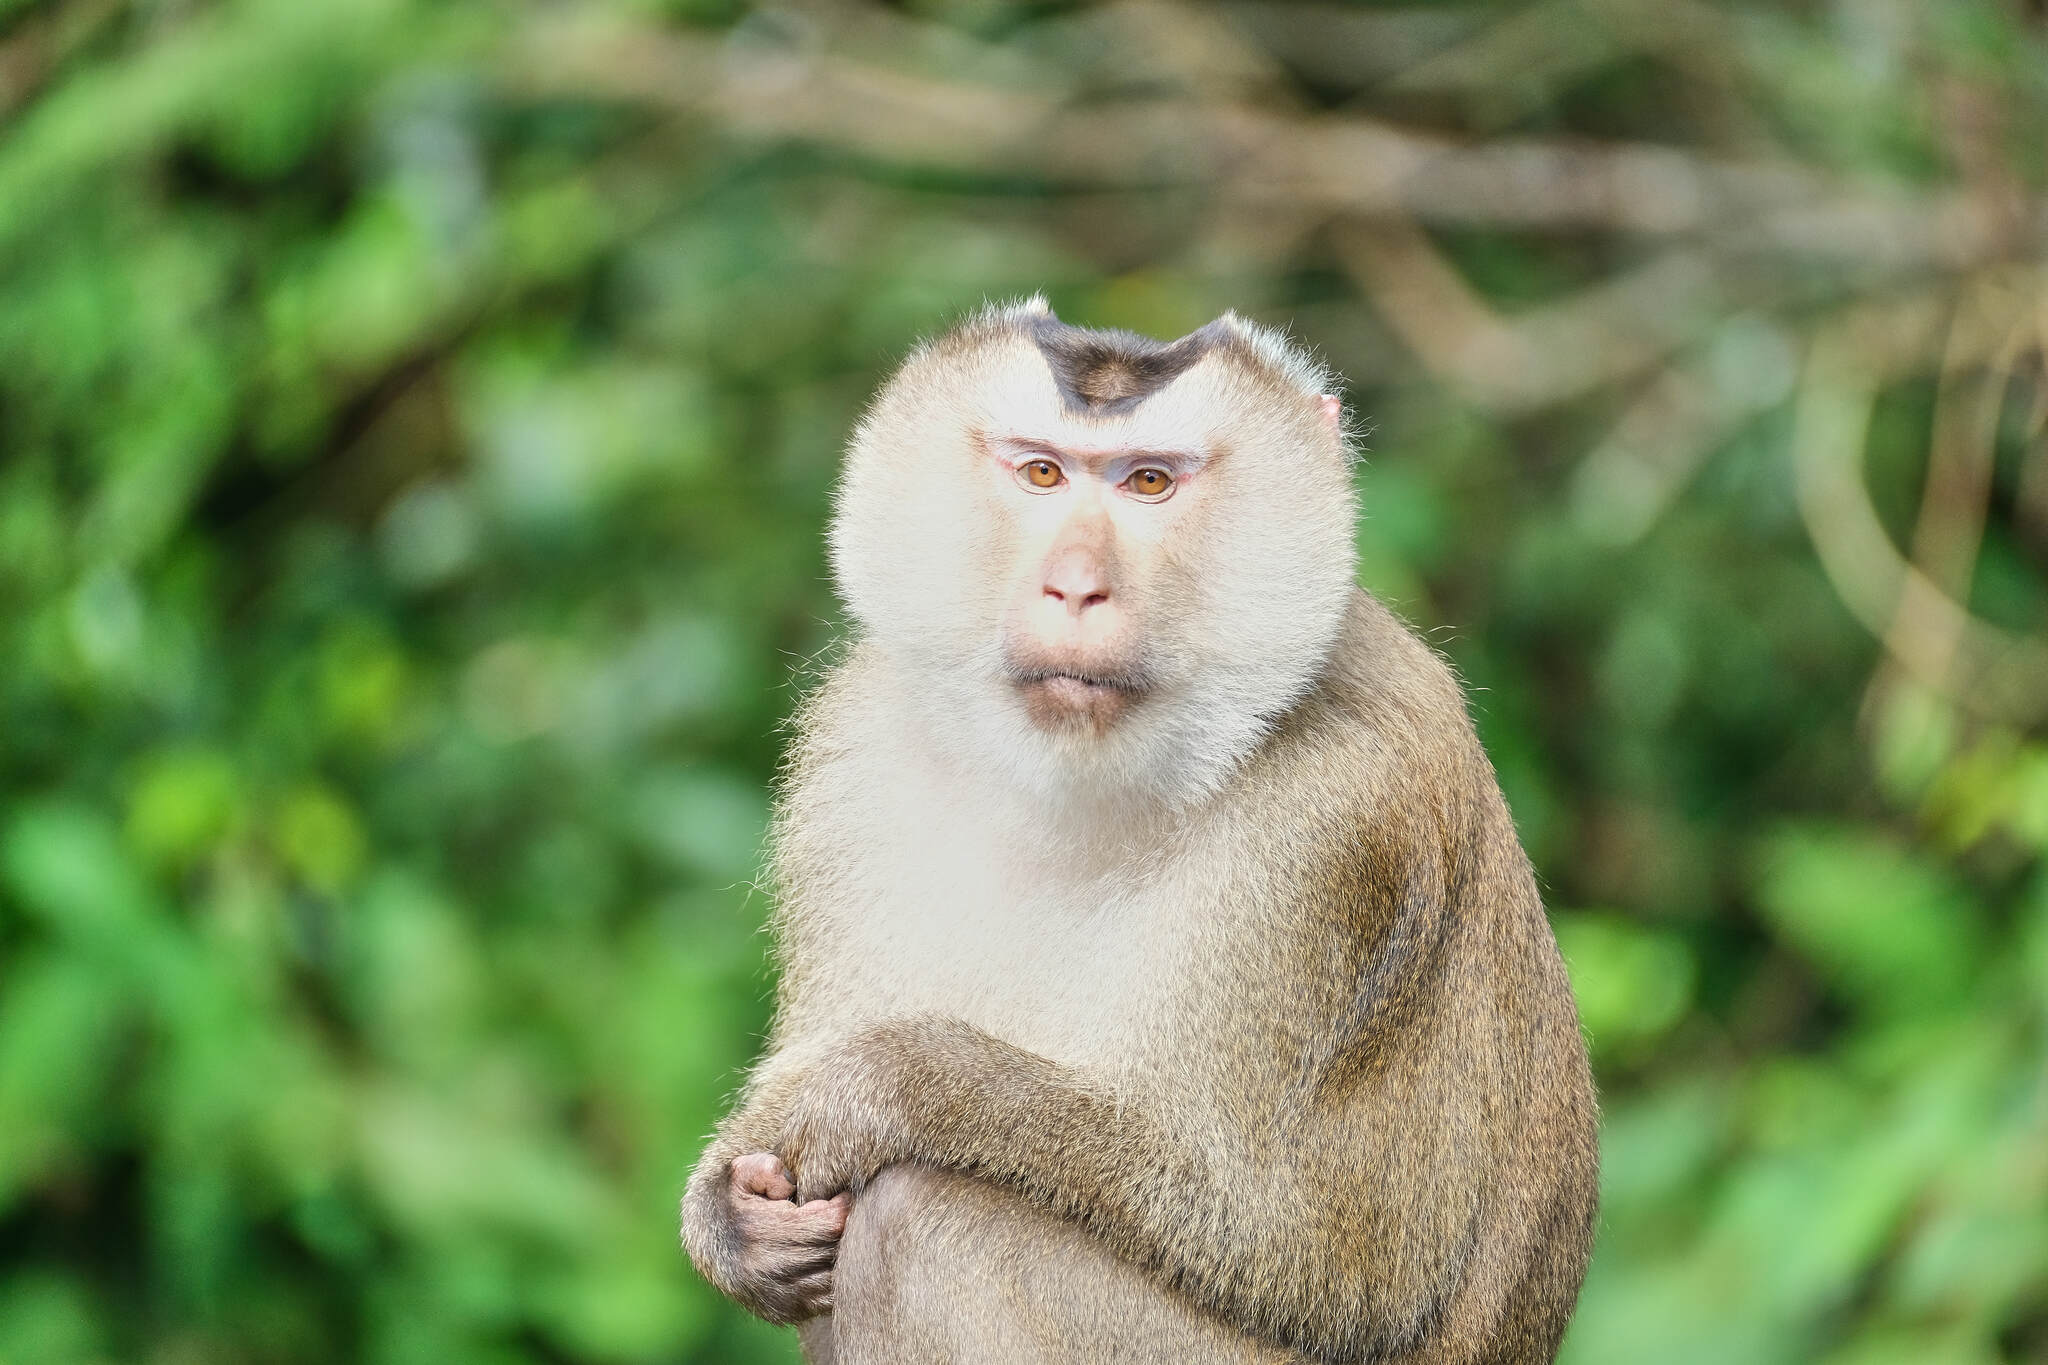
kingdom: Animalia
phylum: Chordata
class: Mammalia
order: Primates
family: Cercopithecidae
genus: Macaca
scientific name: Macaca leonina
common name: Northern pig-tailed macaque
